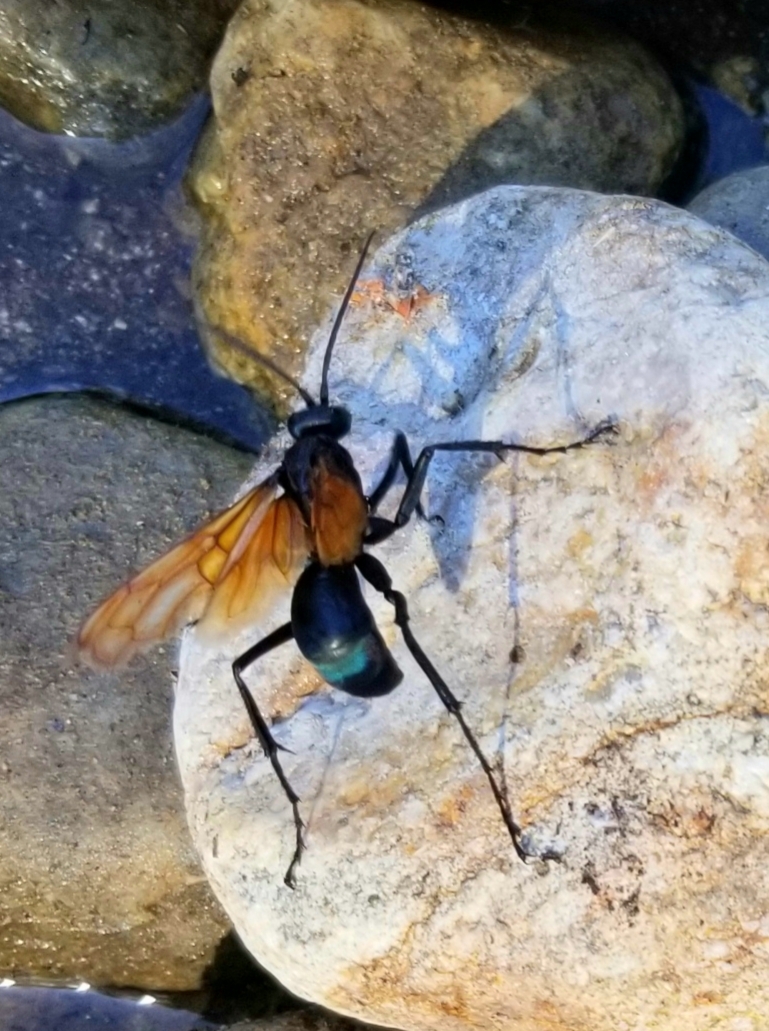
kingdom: Animalia
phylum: Arthropoda
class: Insecta
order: Hymenoptera
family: Pompilidae
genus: Pepsis
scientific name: Pepsis thisbe
